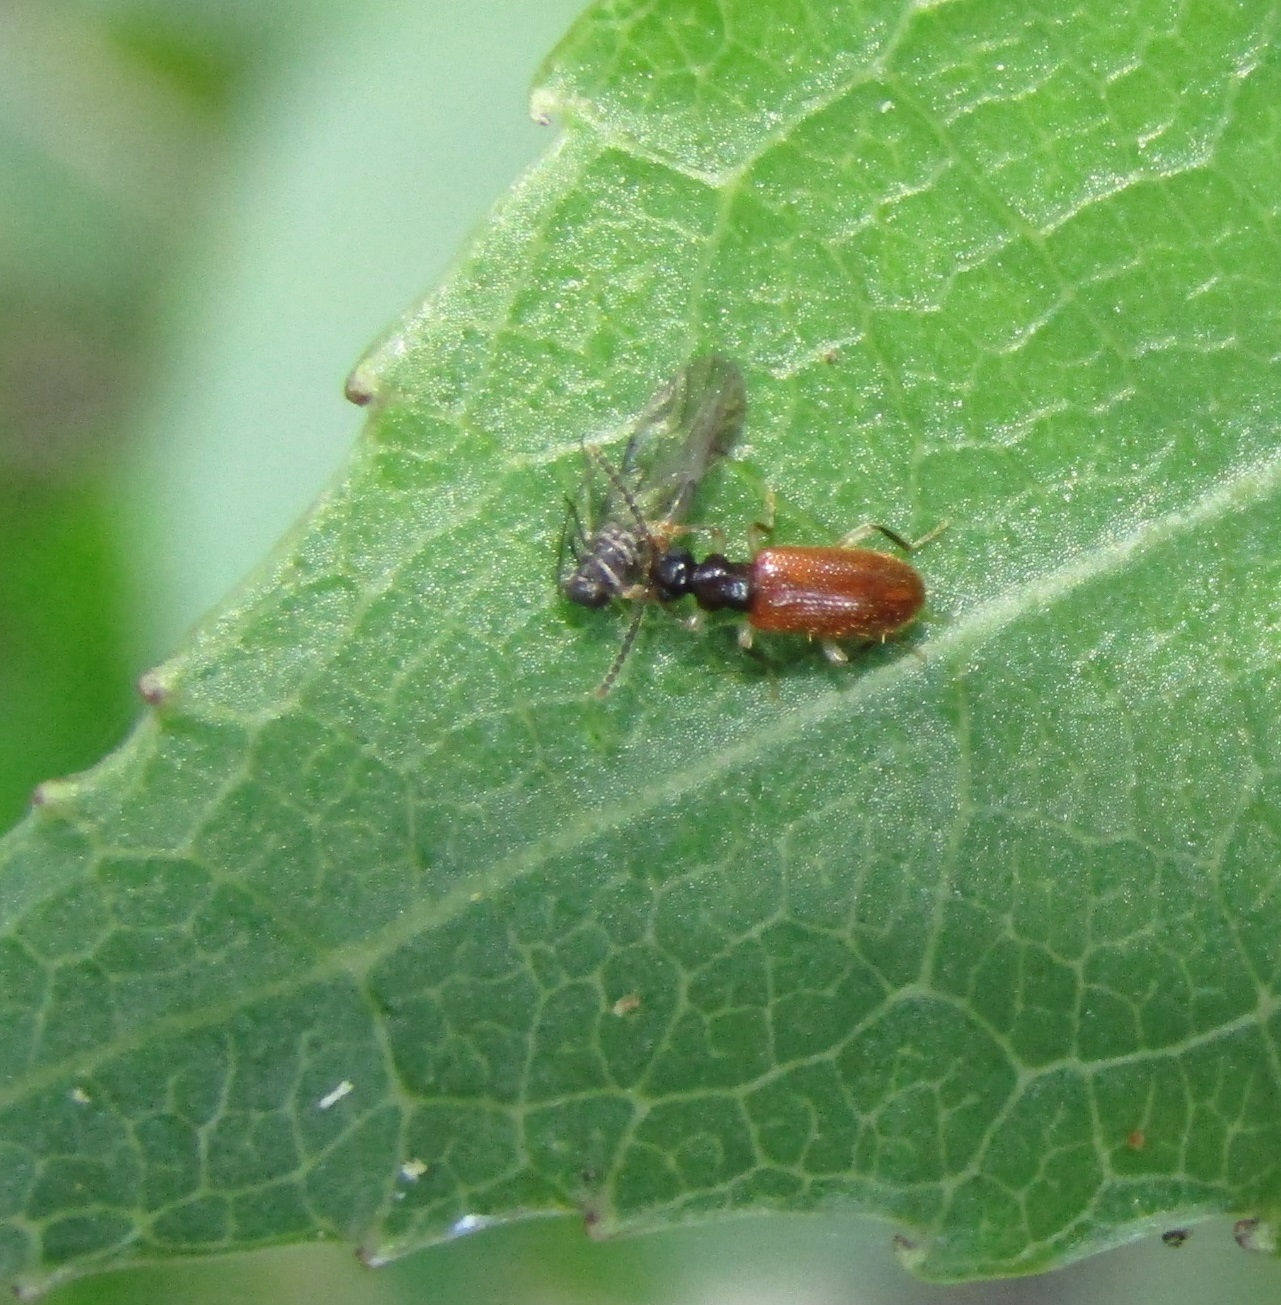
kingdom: Animalia
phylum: Arthropoda
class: Insecta
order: Coleoptera
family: Anthicidae
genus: Trichananca
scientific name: Trichananca fulgida
